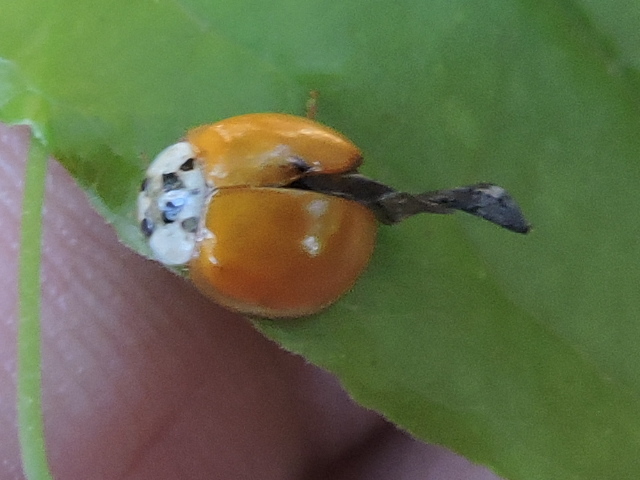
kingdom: Animalia
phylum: Arthropoda
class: Insecta
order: Coleoptera
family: Coccinellidae
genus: Harmonia
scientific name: Harmonia axyridis
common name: Harlequin ladybird
